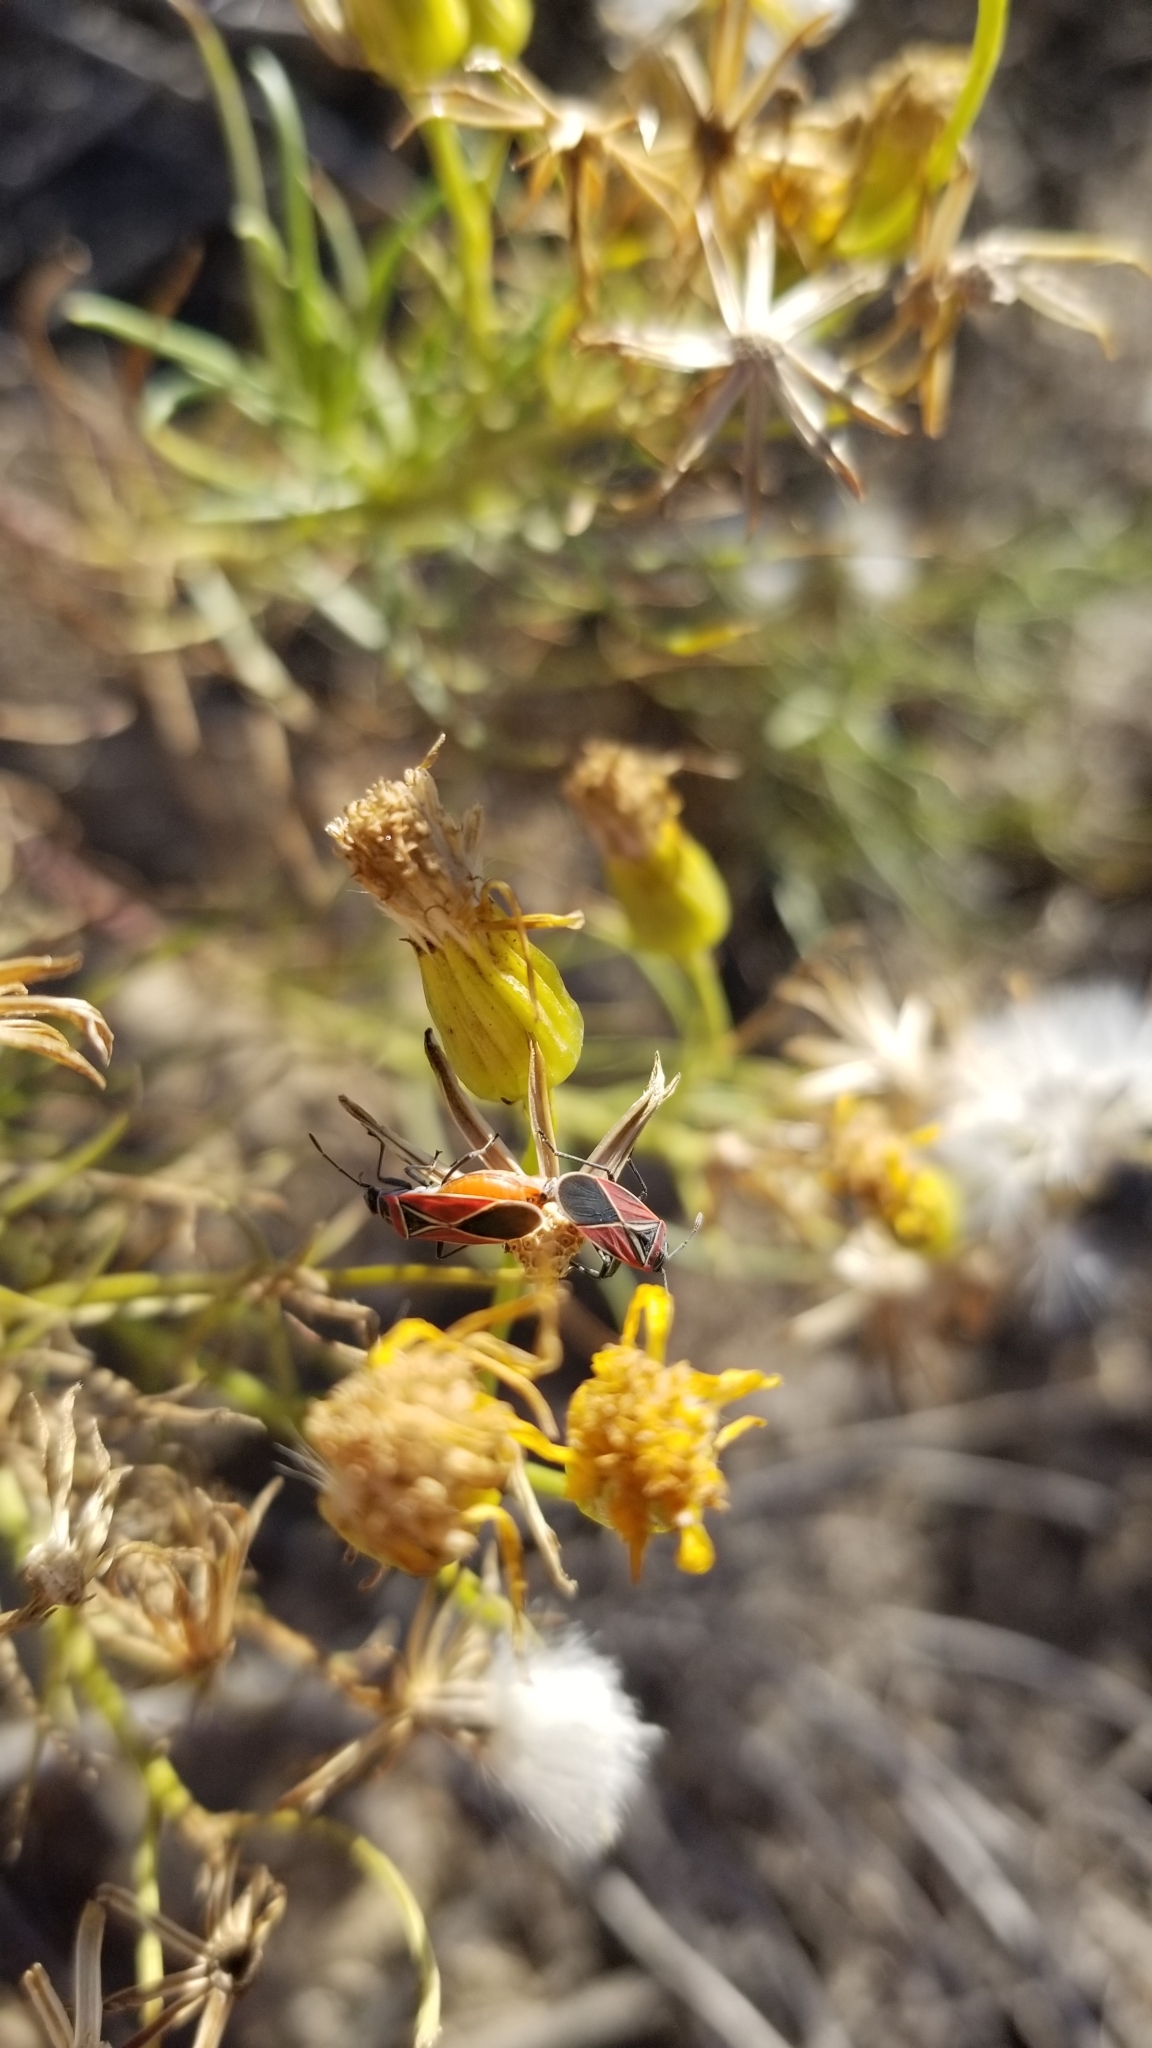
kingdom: Animalia
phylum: Arthropoda
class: Insecta
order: Hemiptera
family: Lygaeidae
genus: Neacoryphus
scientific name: Neacoryphus bicrucis
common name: Lygaeid bug
